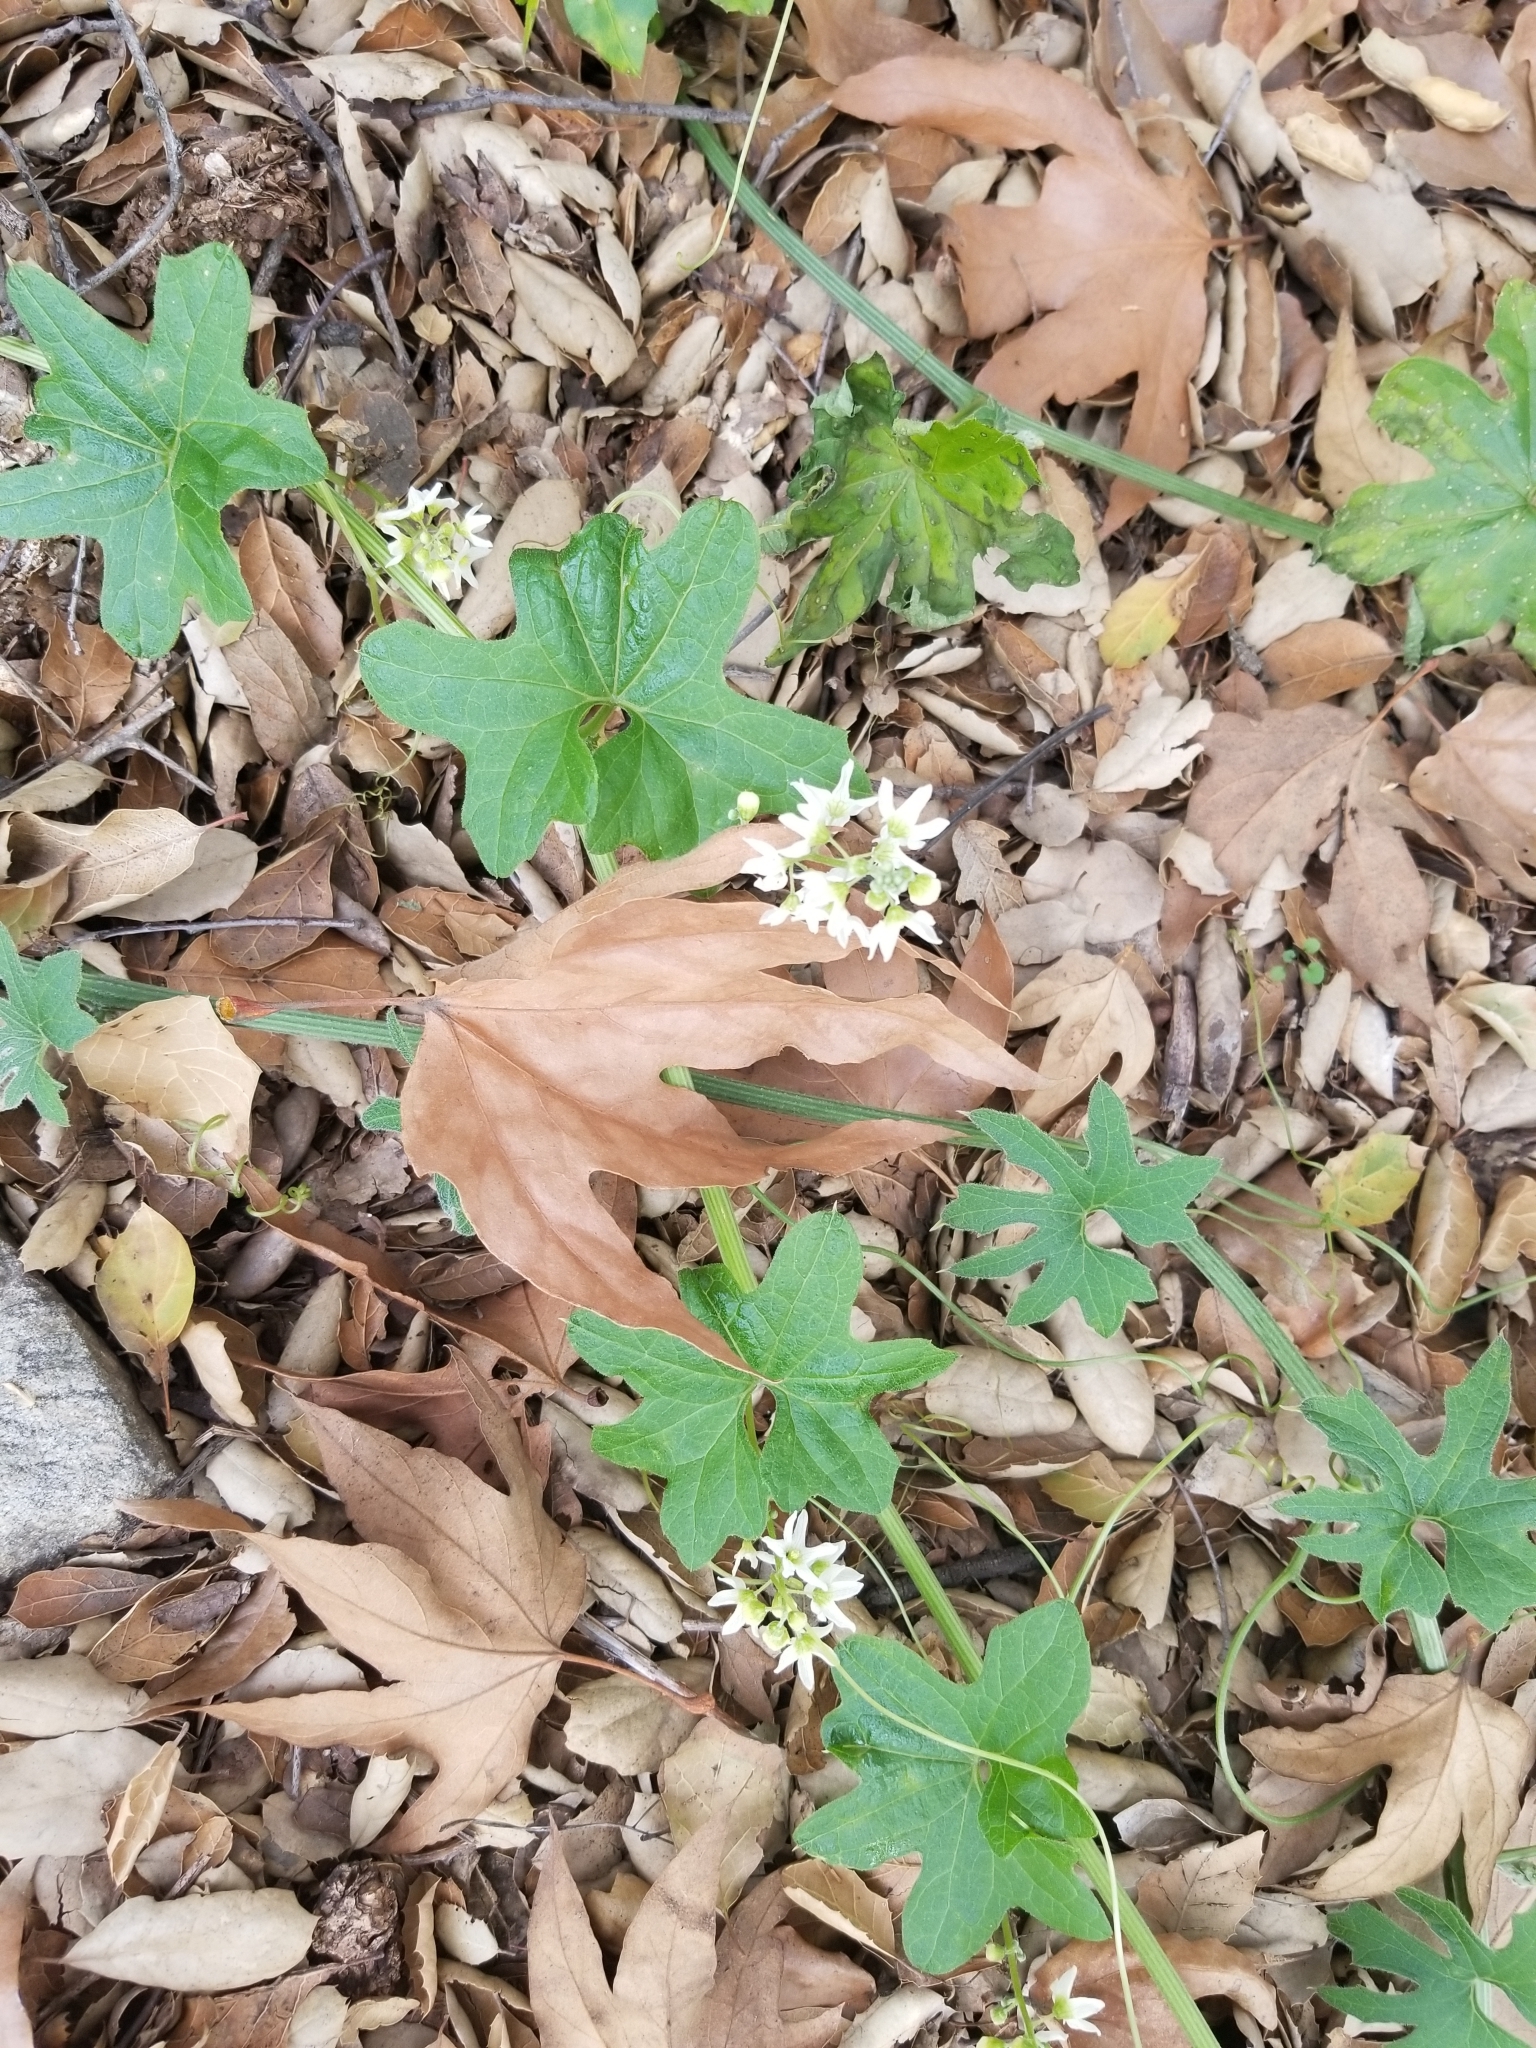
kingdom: Plantae
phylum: Tracheophyta
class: Magnoliopsida
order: Cucurbitales
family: Cucurbitaceae
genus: Marah
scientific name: Marah macrocarpa
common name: Cucamonga manroot
